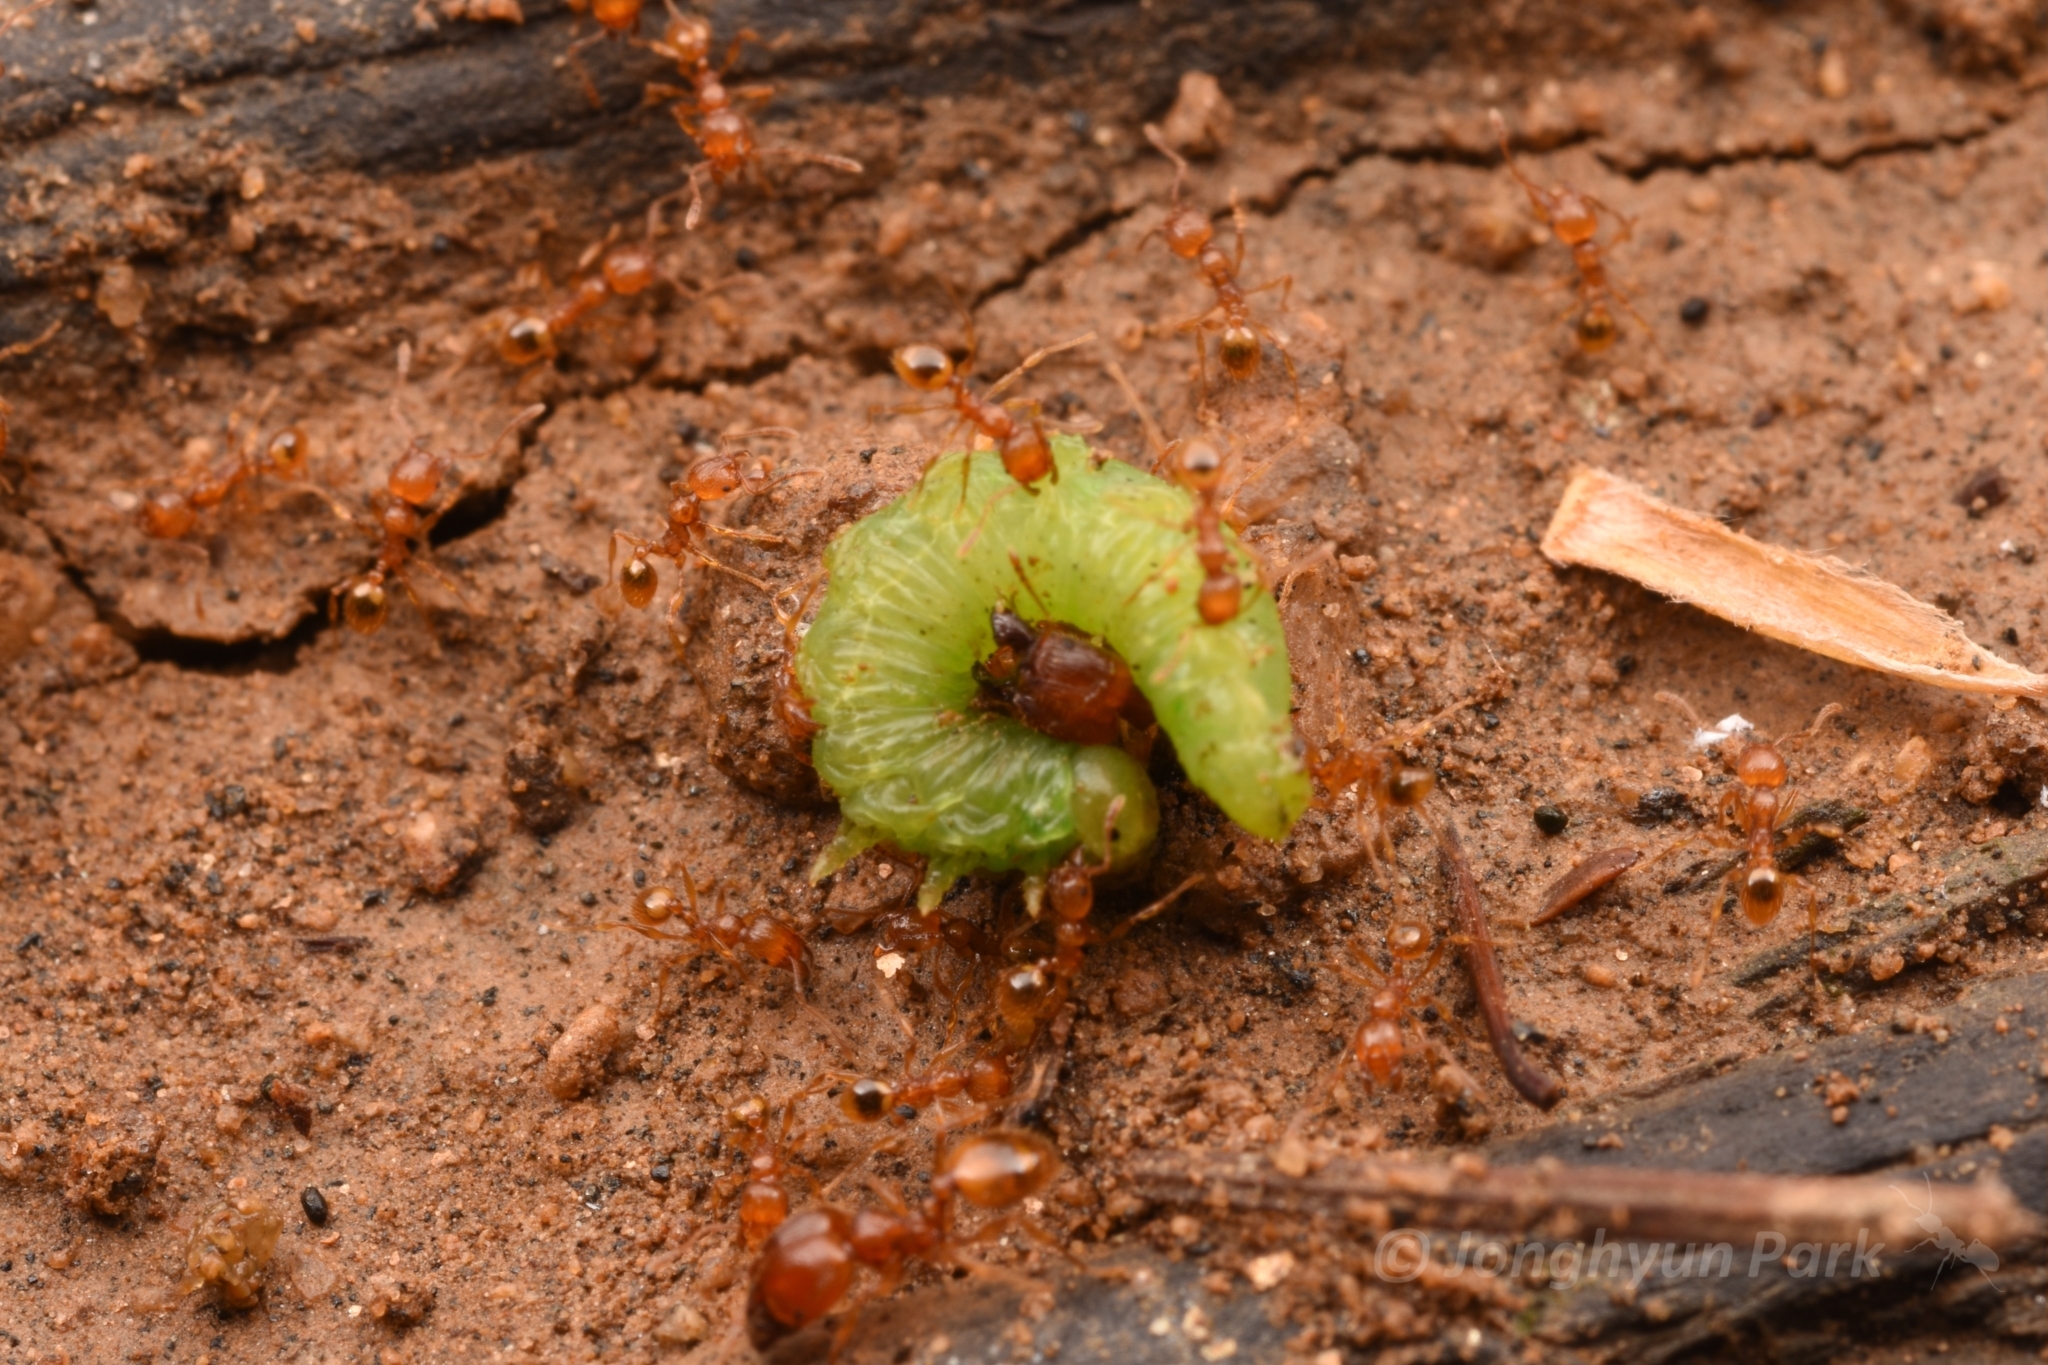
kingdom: Animalia
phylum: Arthropoda
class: Insecta
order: Hymenoptera
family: Formicidae
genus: Pheidole
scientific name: Pheidole fervida
